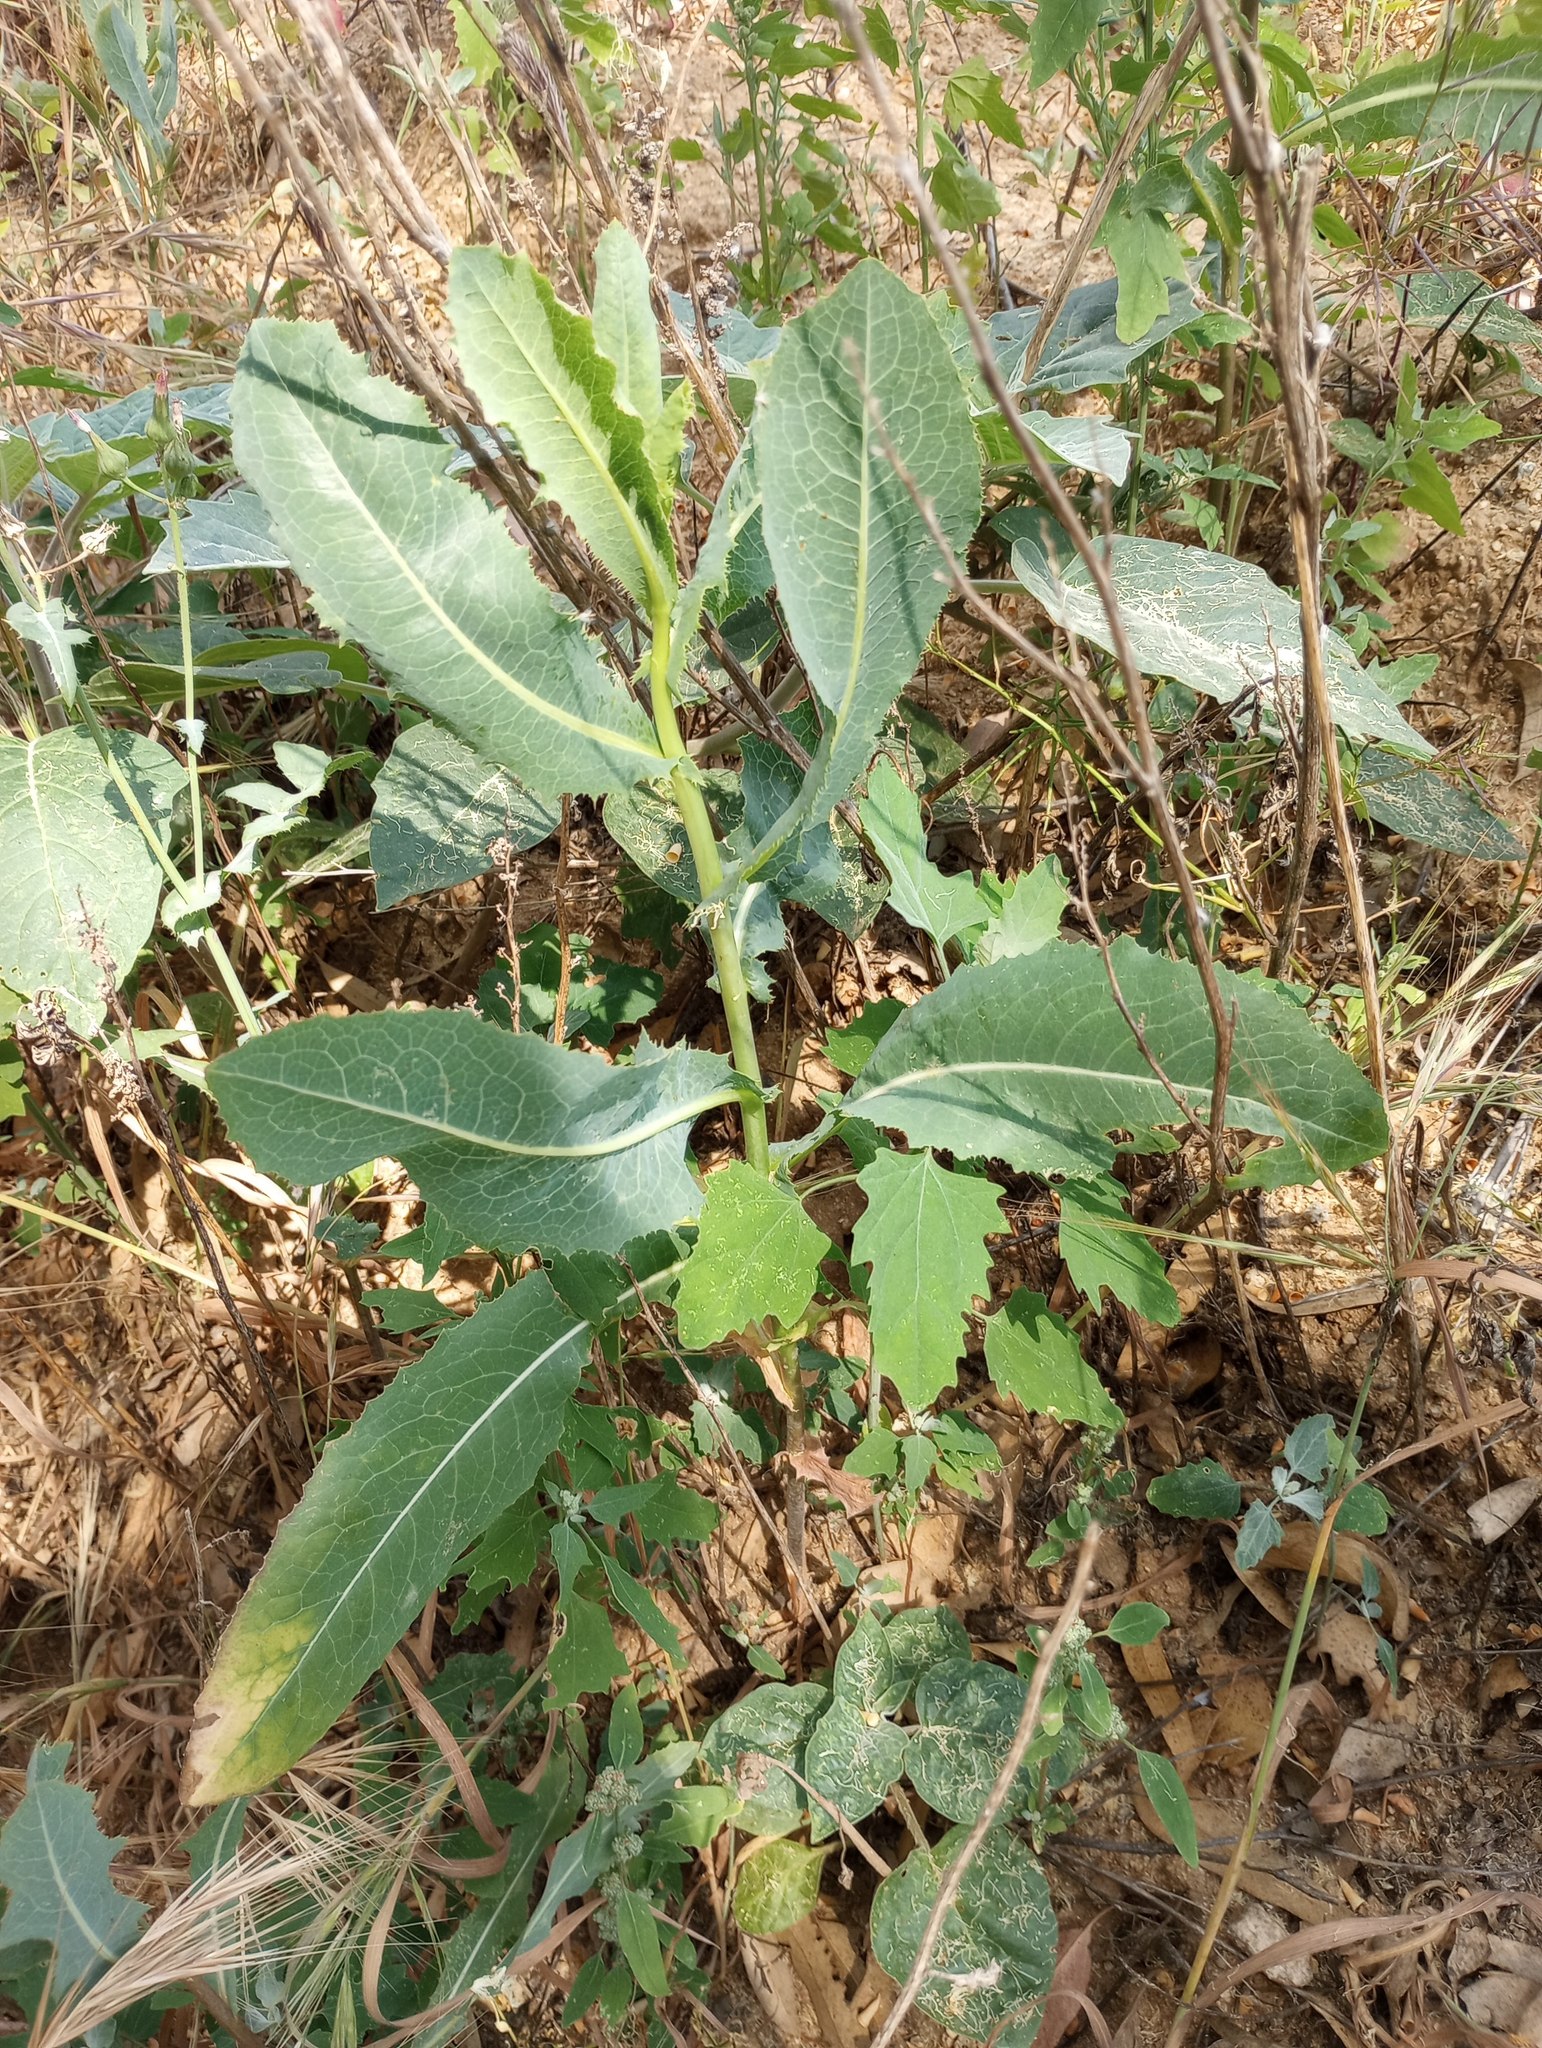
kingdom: Plantae
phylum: Tracheophyta
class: Magnoliopsida
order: Asterales
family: Asteraceae
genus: Lactuca
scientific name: Lactuca serriola
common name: Prickly lettuce
